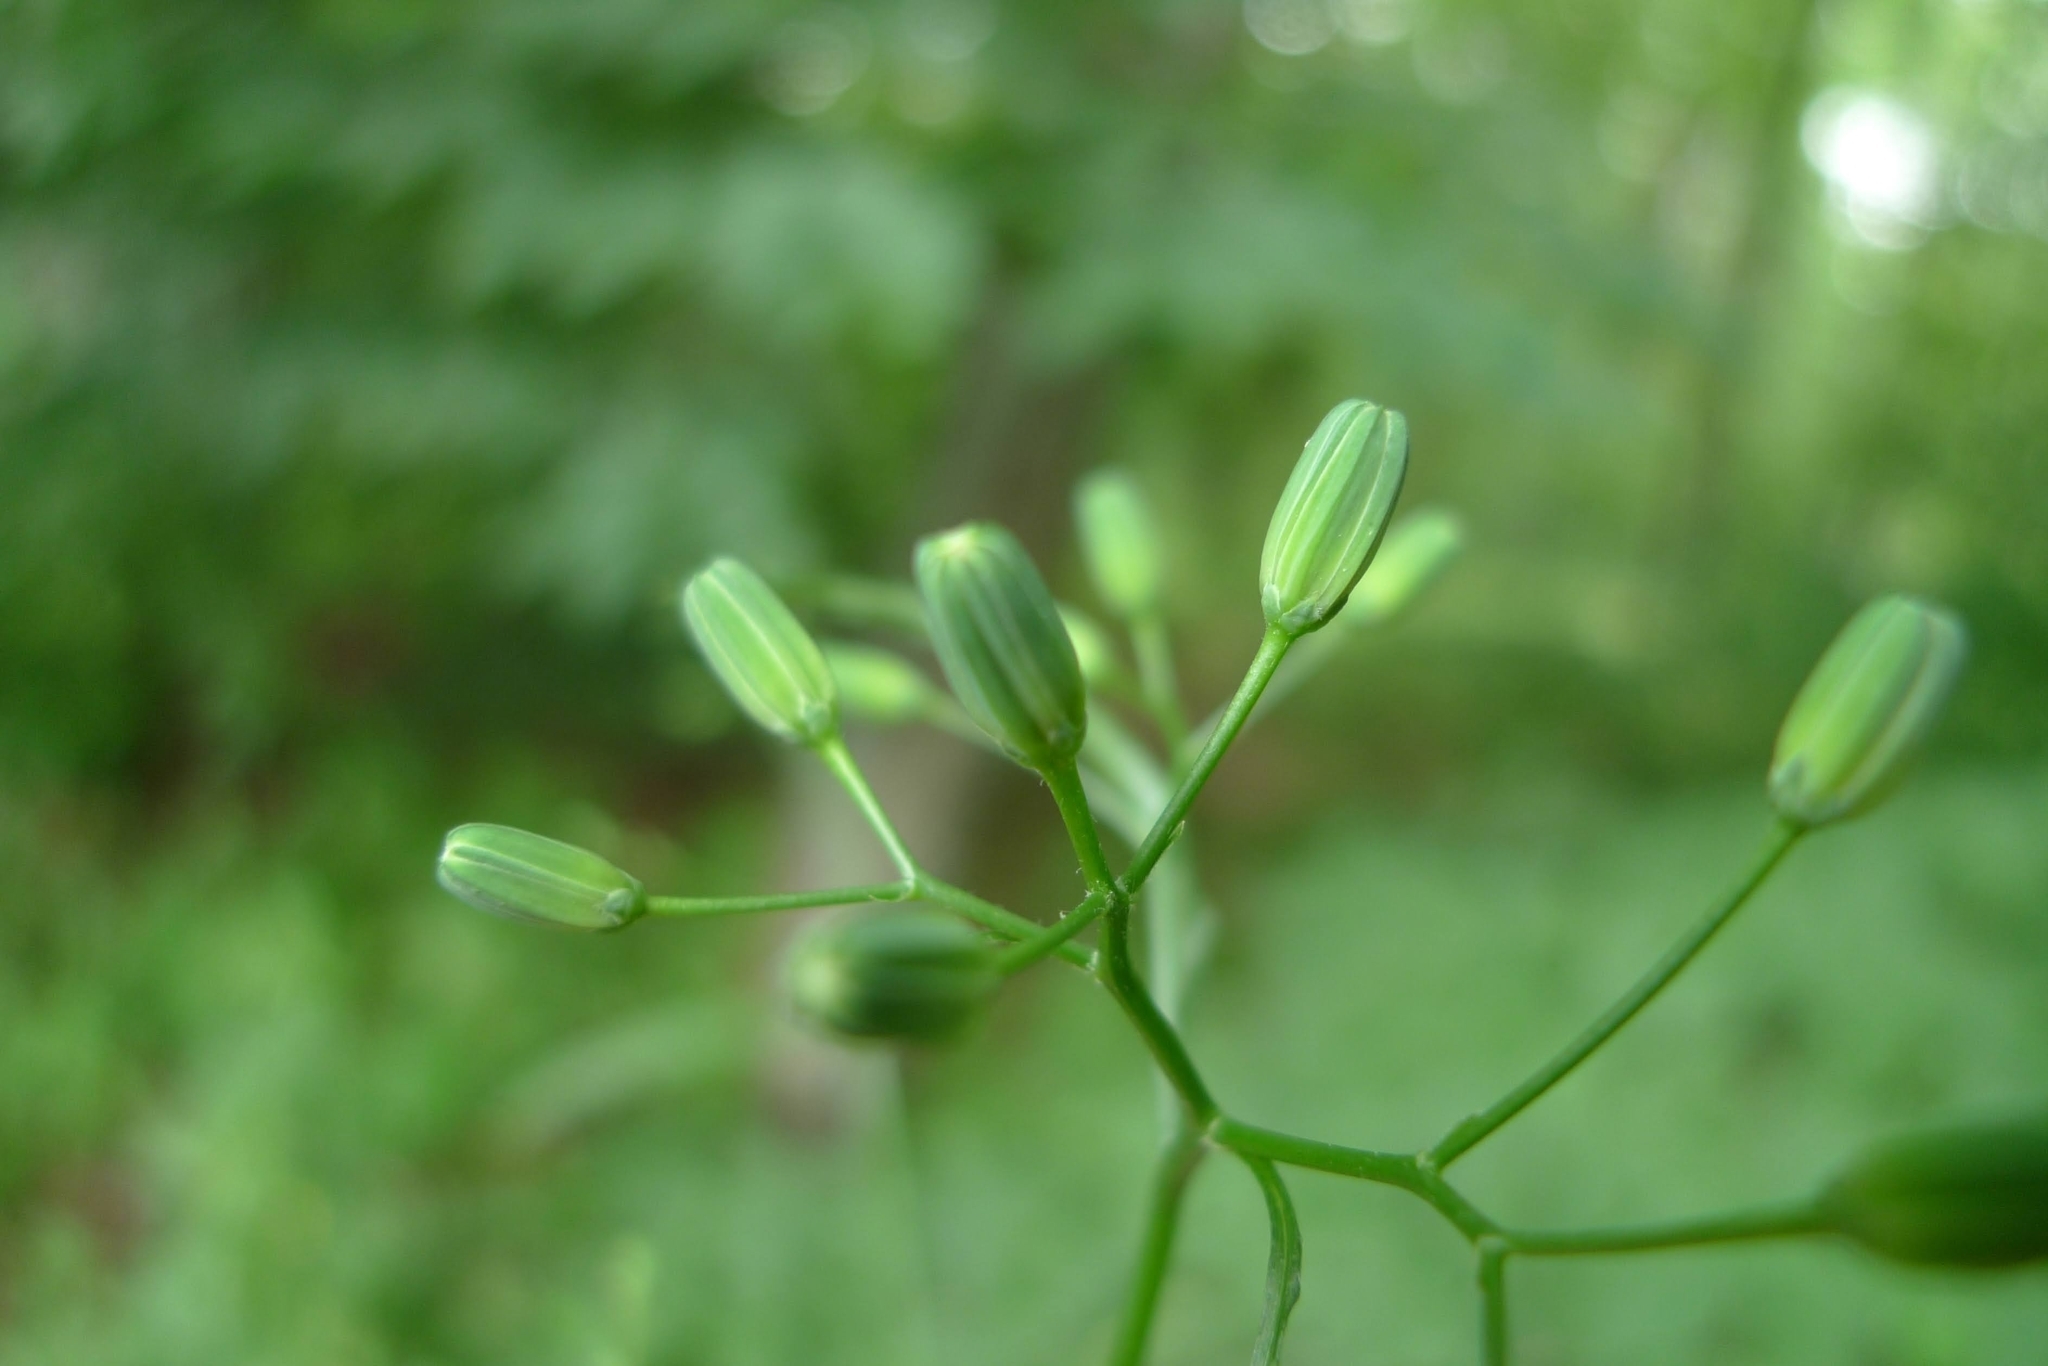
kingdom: Plantae
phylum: Tracheophyta
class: Magnoliopsida
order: Asterales
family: Asteraceae
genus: Lapsana
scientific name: Lapsana communis
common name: Nipplewort
